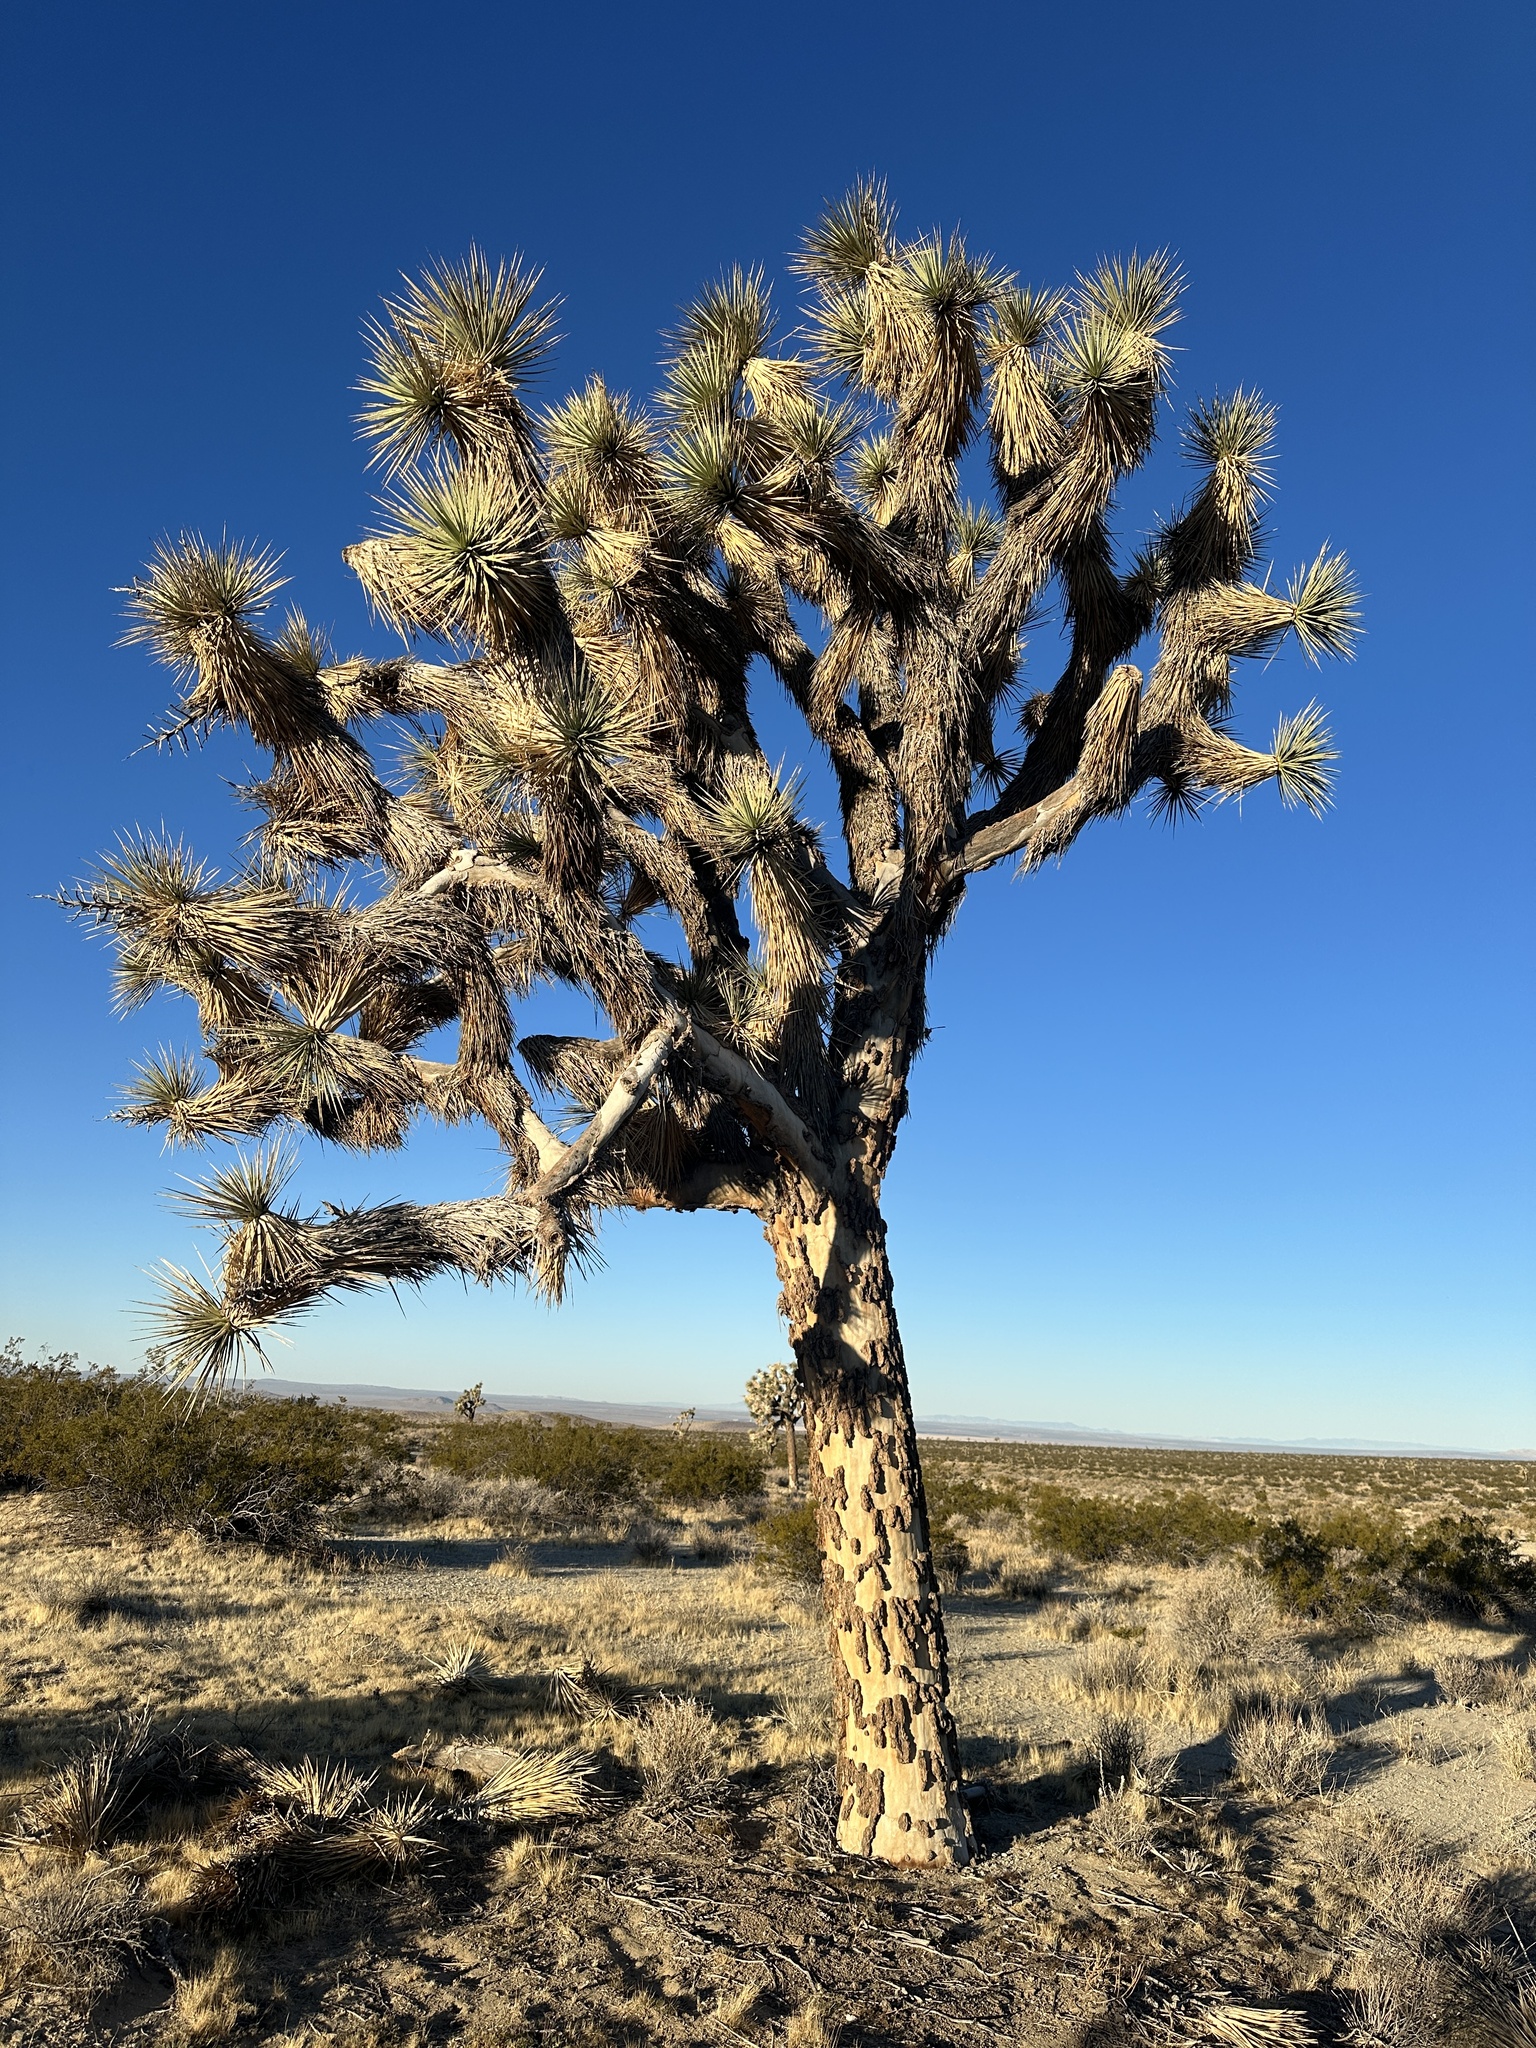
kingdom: Plantae
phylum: Tracheophyta
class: Liliopsida
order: Asparagales
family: Asparagaceae
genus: Yucca
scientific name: Yucca brevifolia
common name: Joshua tree
